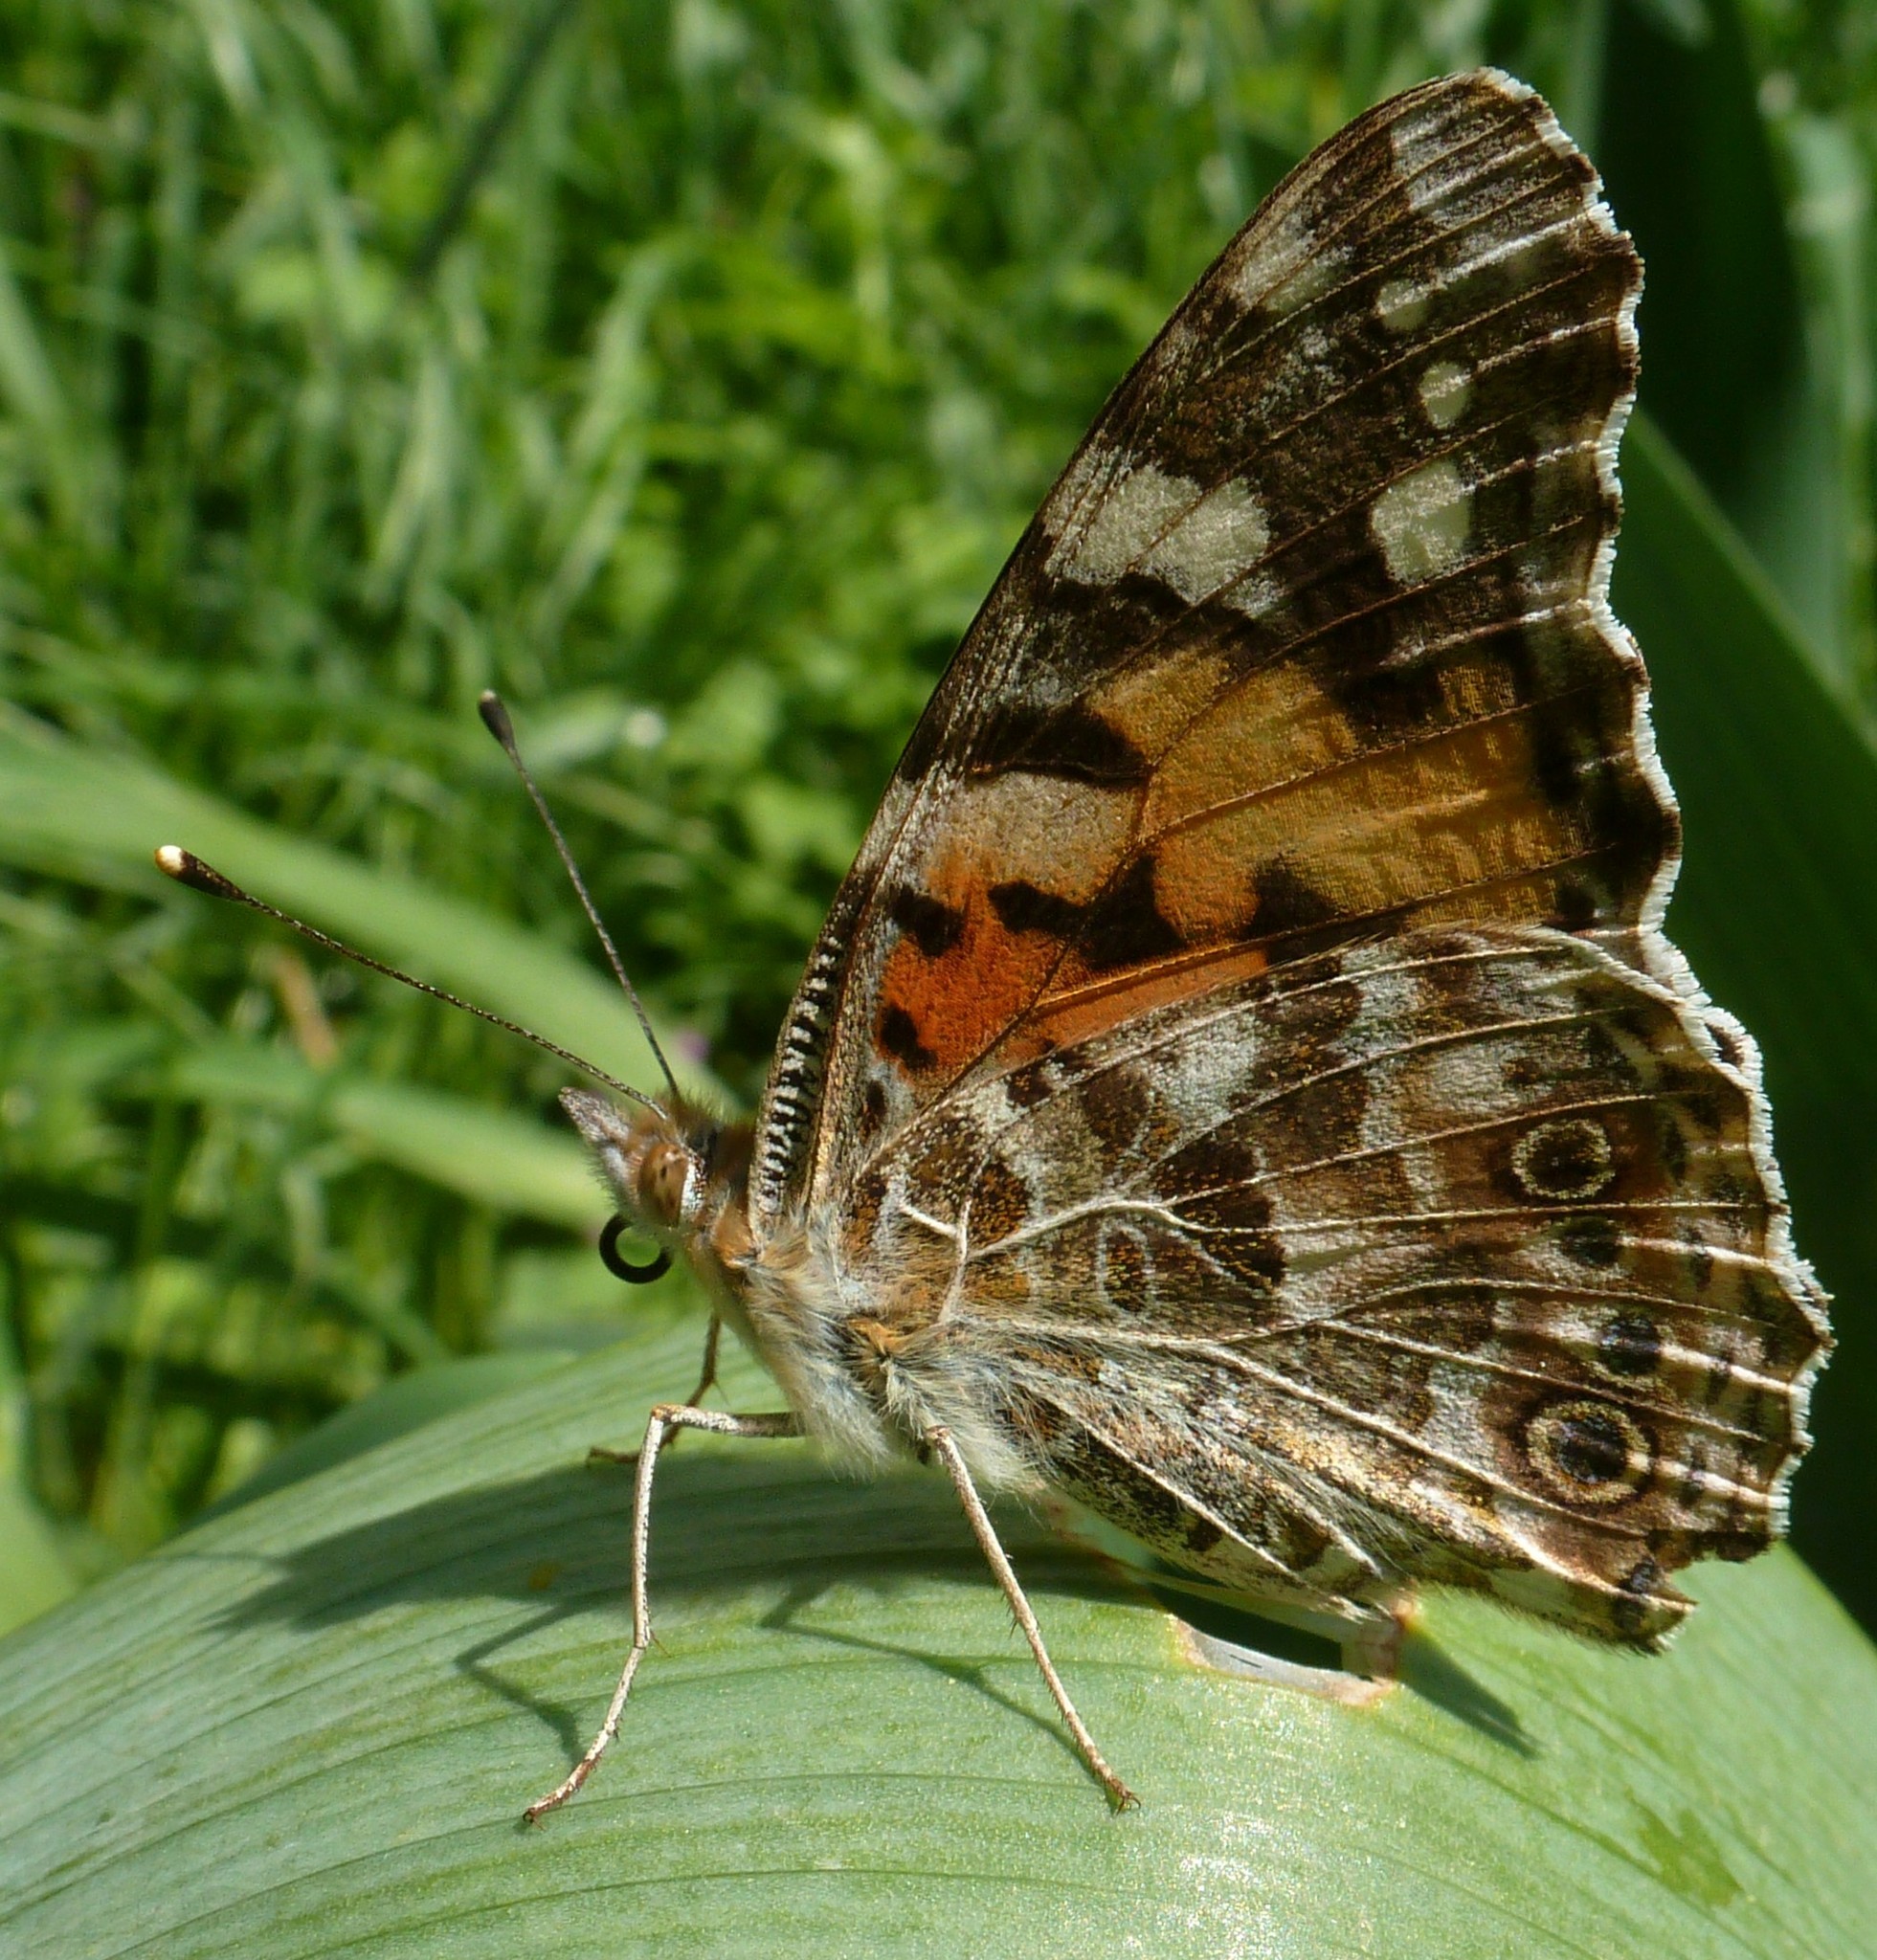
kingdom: Animalia
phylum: Arthropoda
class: Insecta
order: Lepidoptera
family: Nymphalidae
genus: Vanessa
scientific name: Vanessa cardui
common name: Painted lady
